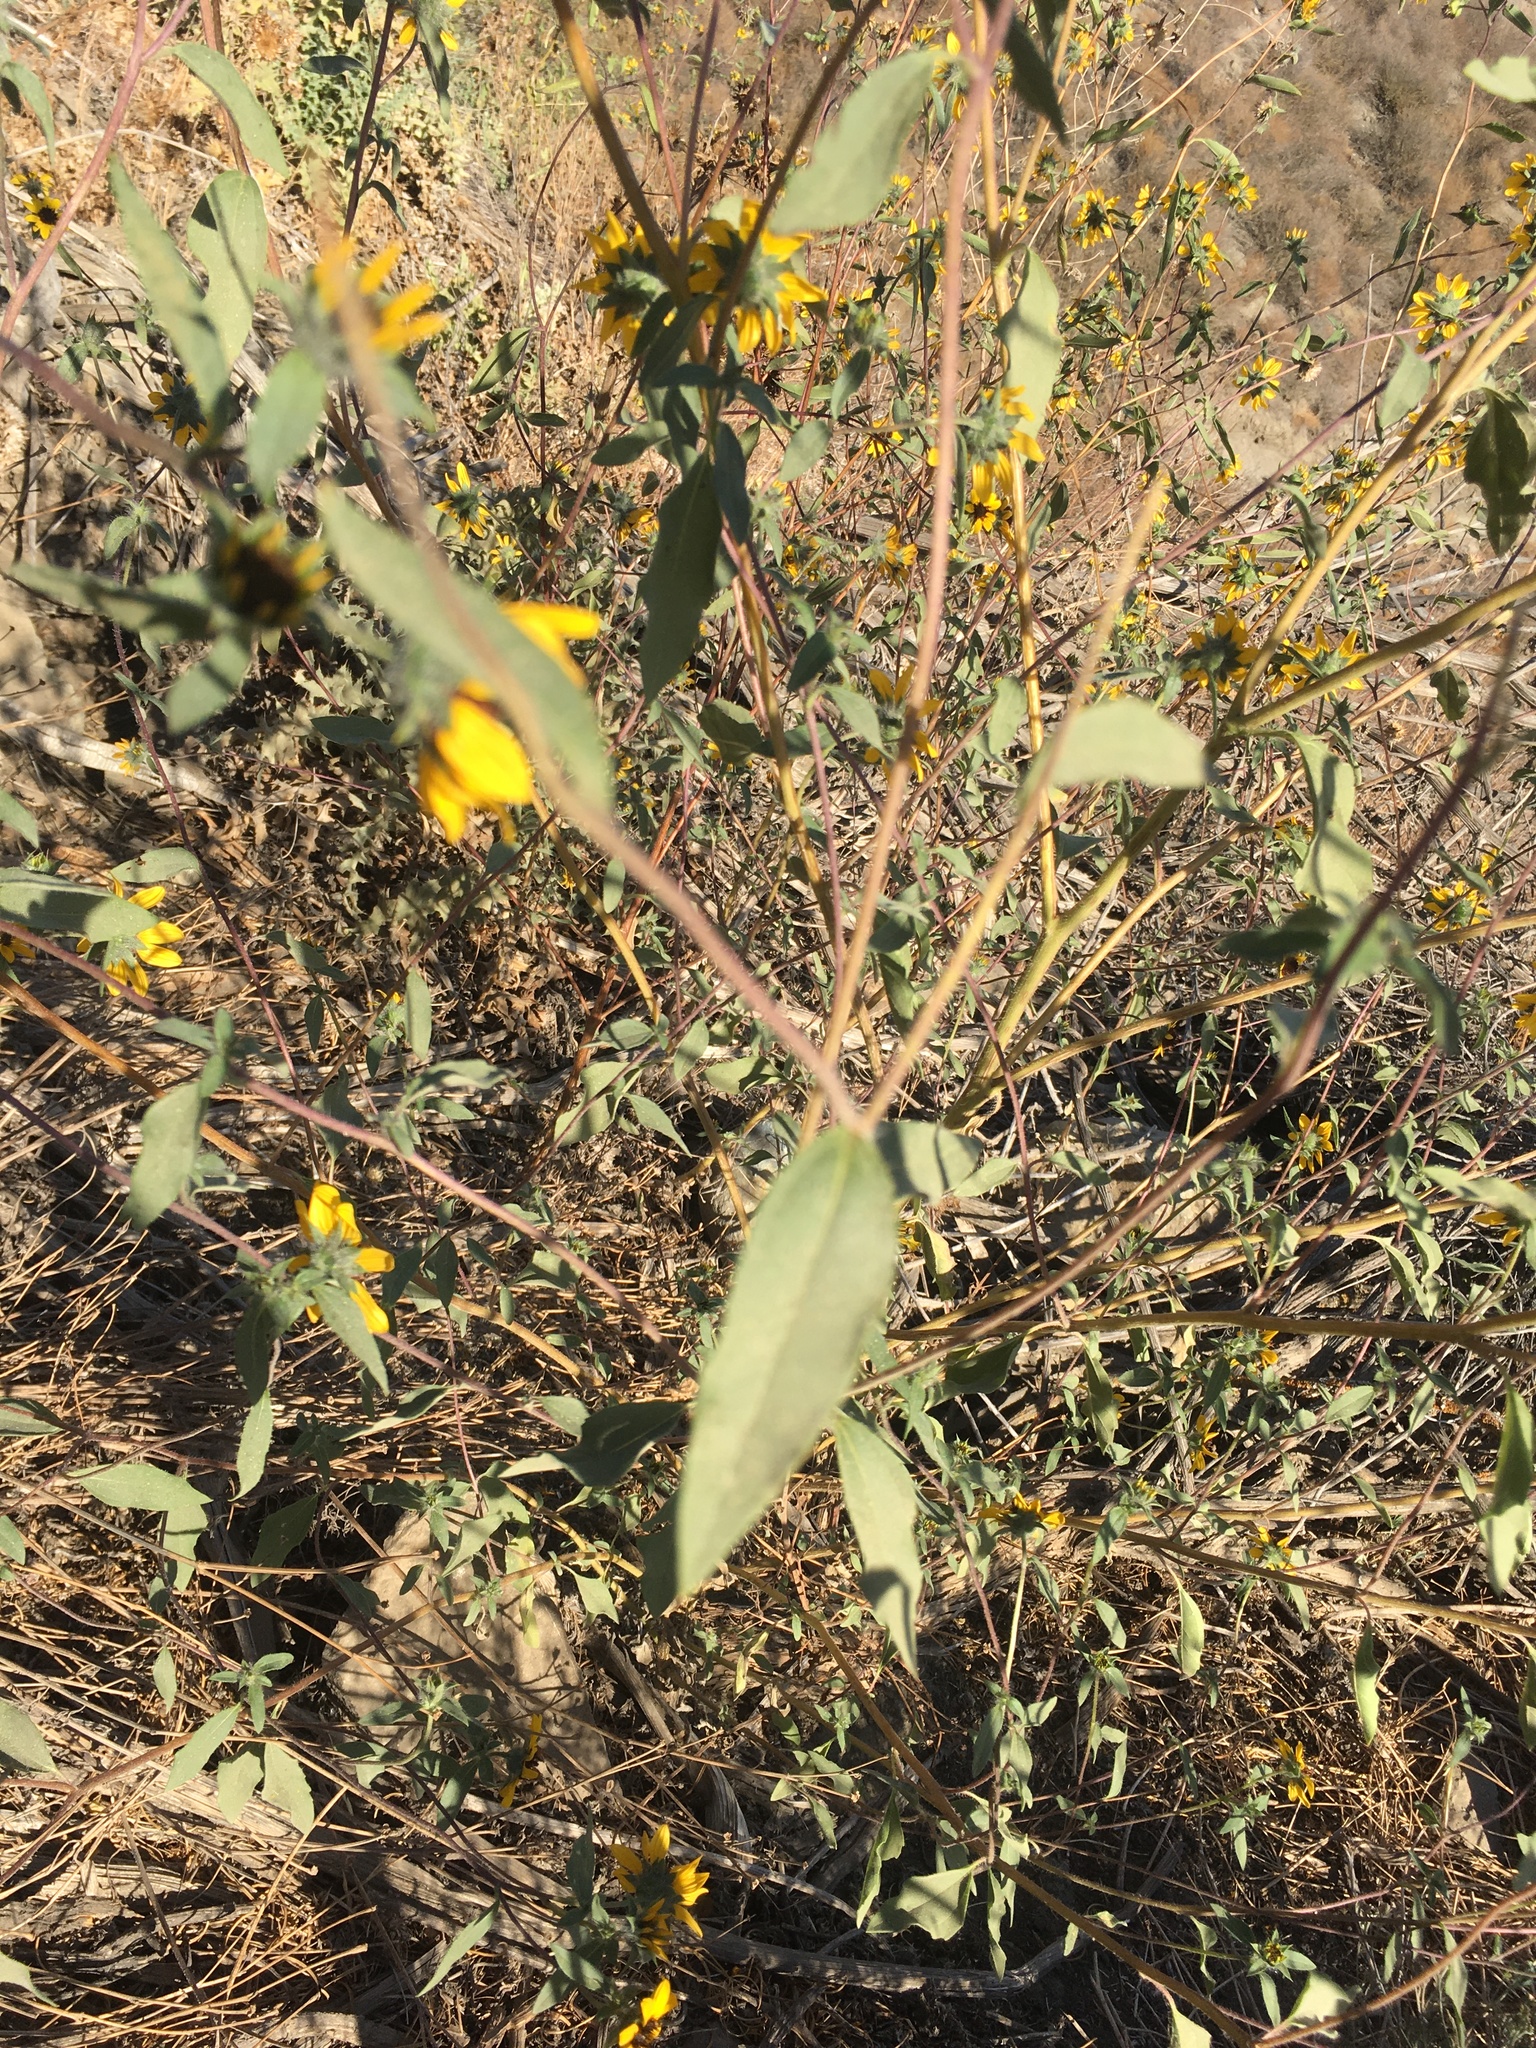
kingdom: Plantae
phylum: Tracheophyta
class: Magnoliopsida
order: Asterales
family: Asteraceae
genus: Helianthus
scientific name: Helianthus exilis
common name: Serpentine sunflower
